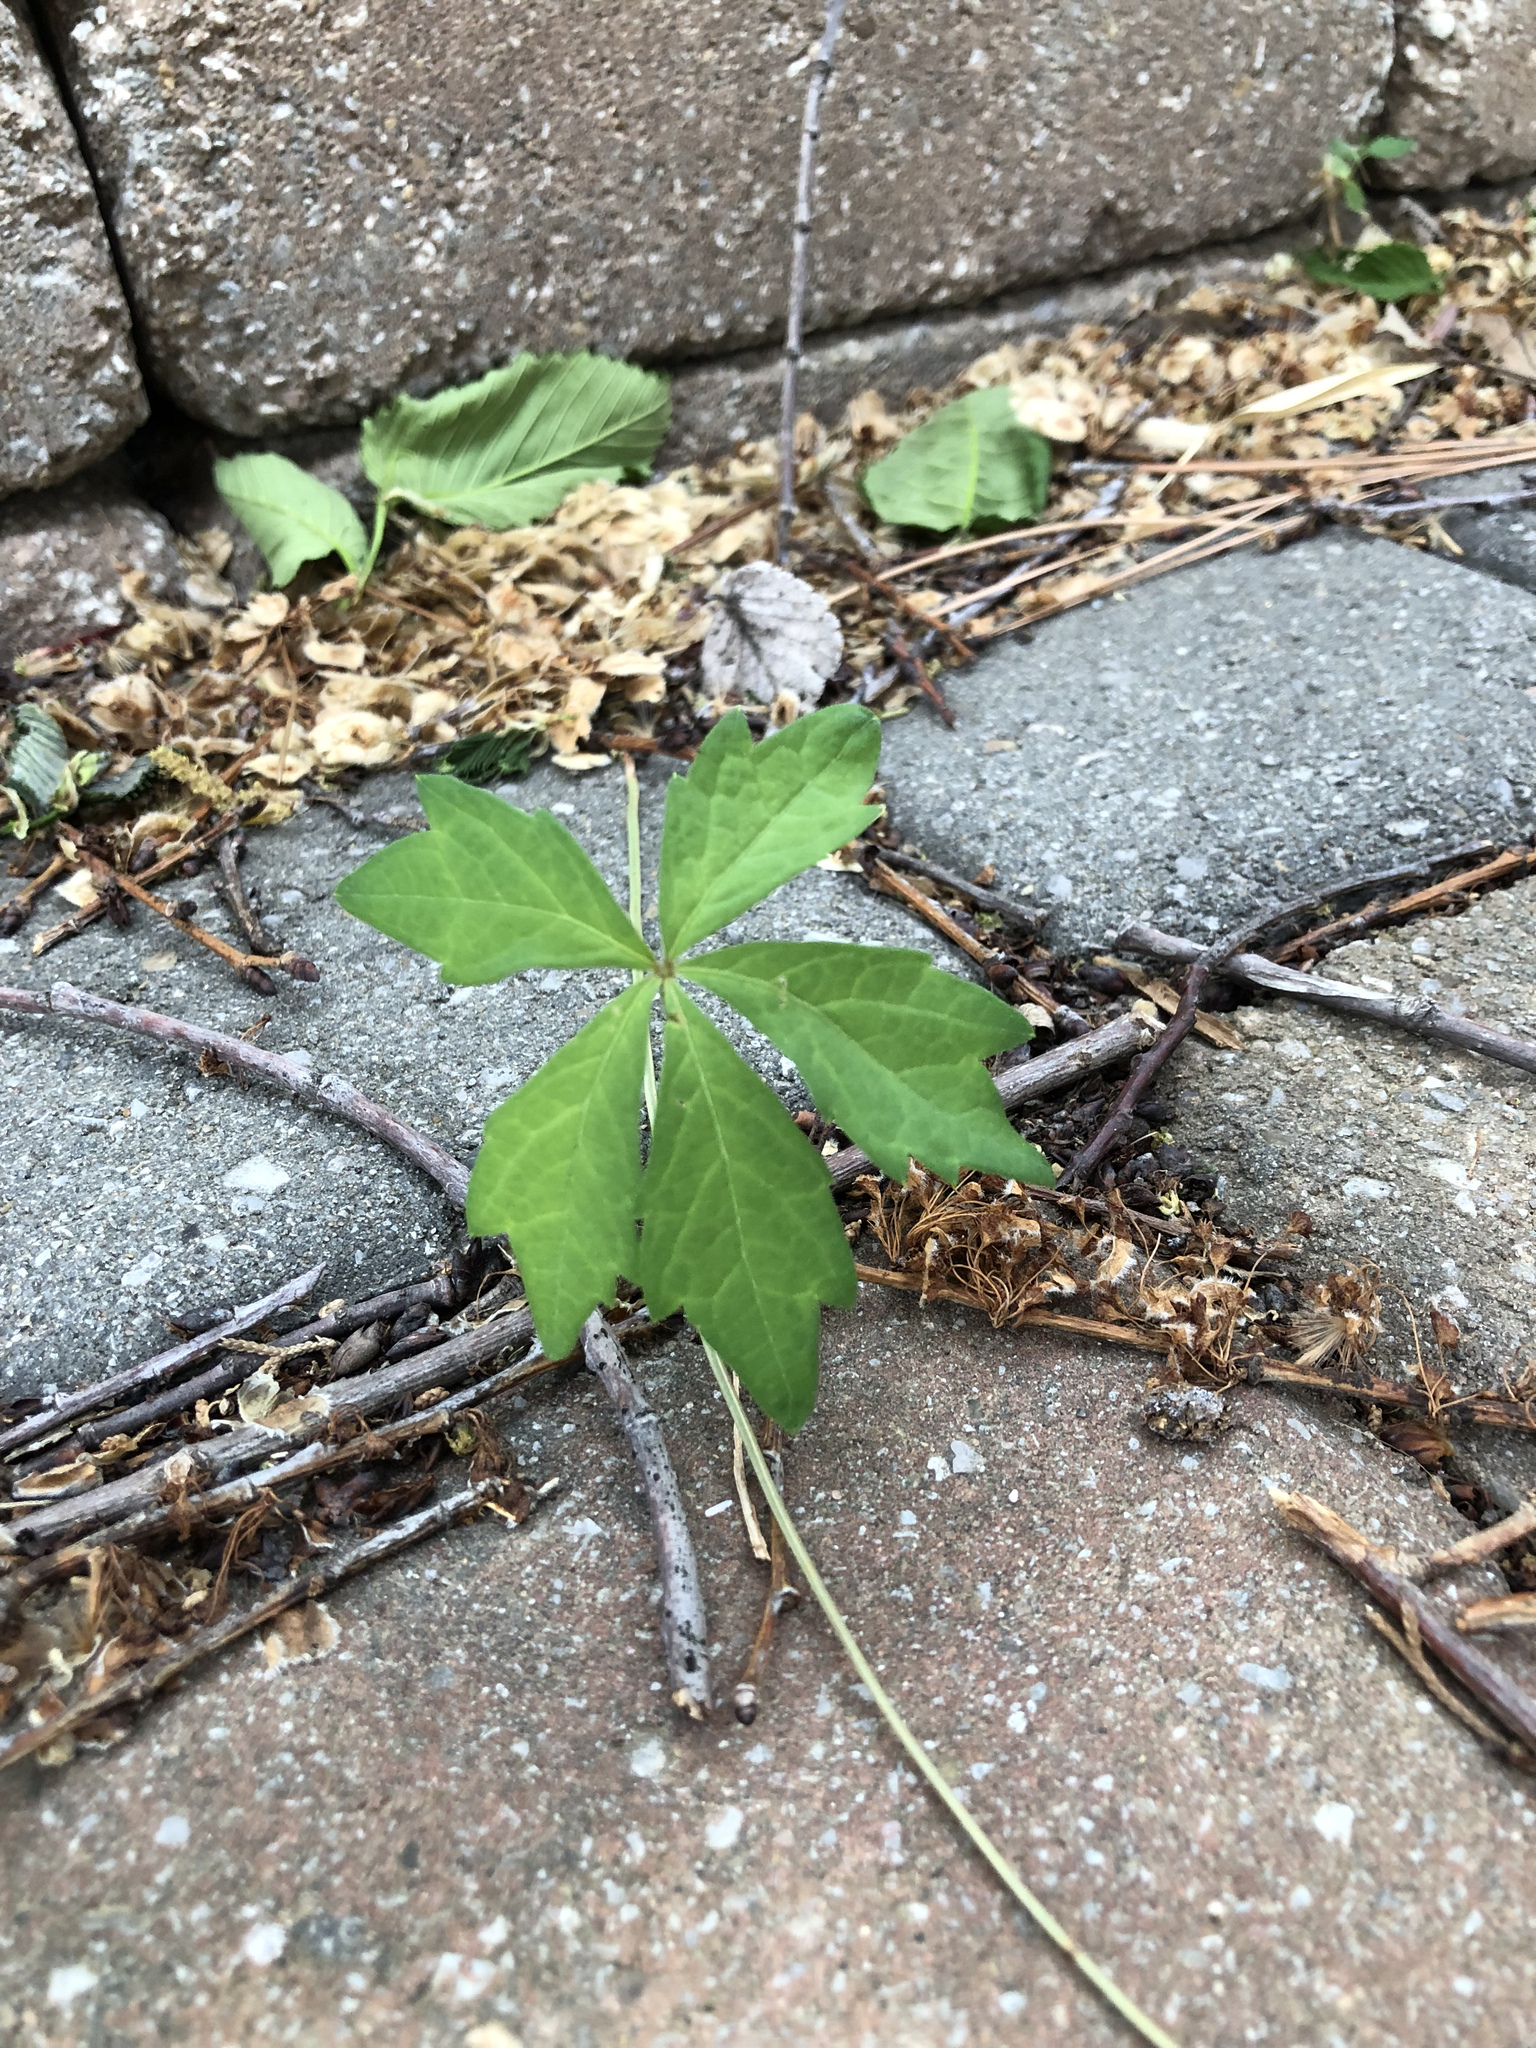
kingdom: Plantae
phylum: Tracheophyta
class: Magnoliopsida
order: Vitales
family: Vitaceae
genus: Parthenocissus
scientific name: Parthenocissus quinquefolia
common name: Virginia-creeper
